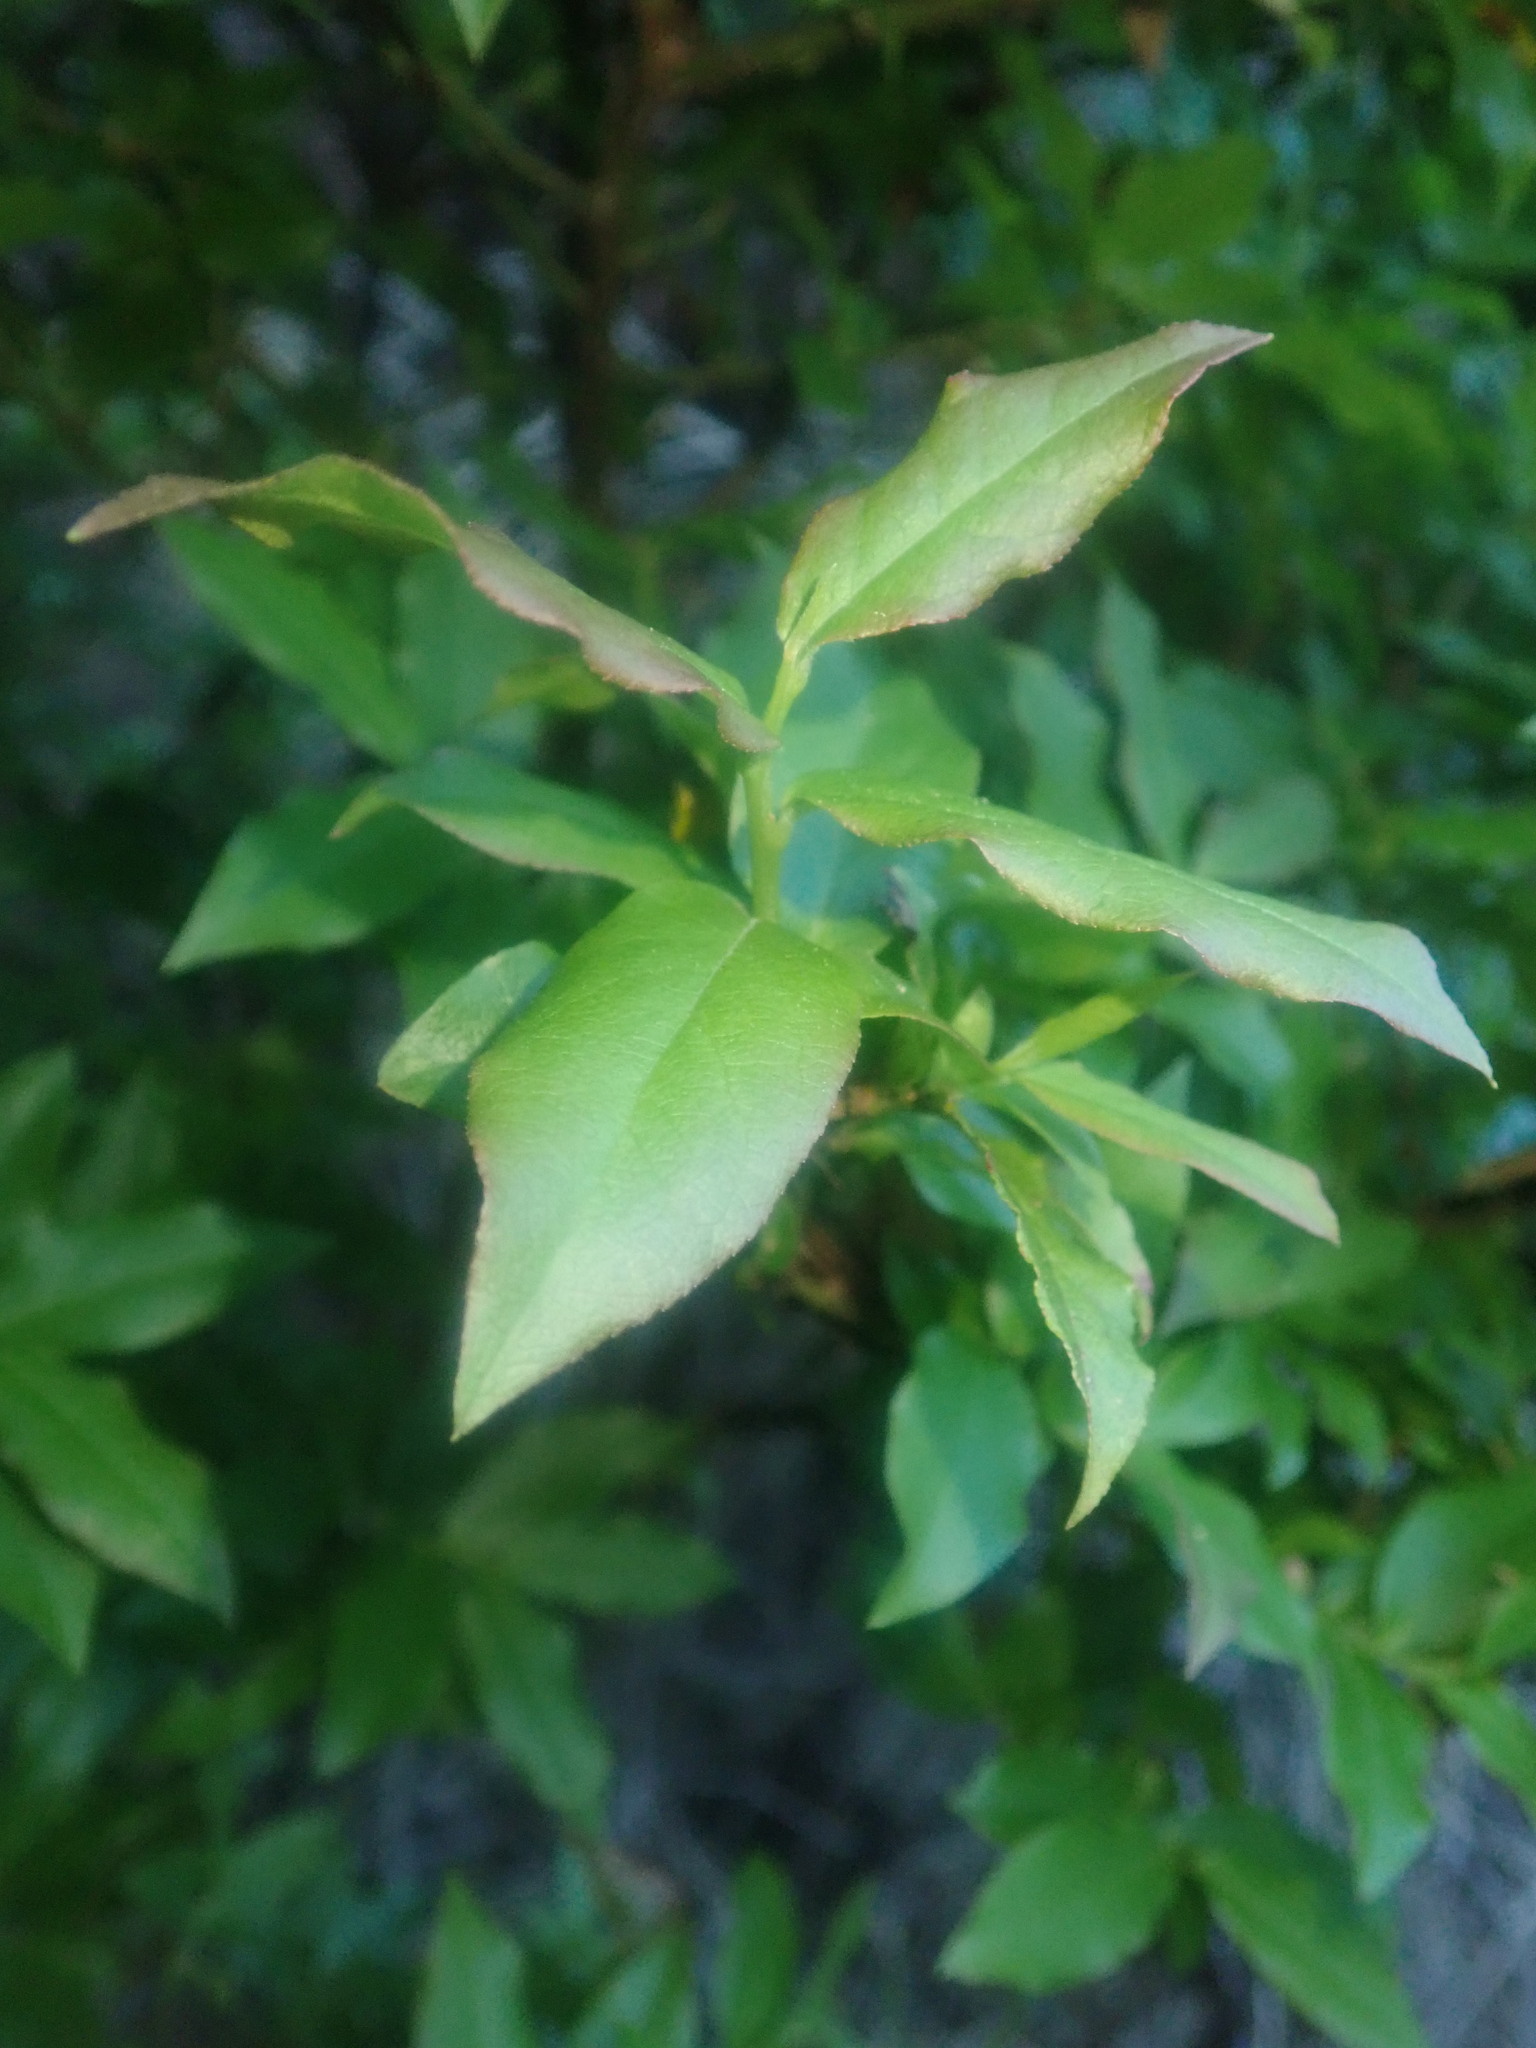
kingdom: Plantae
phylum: Tracheophyta
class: Magnoliopsida
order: Ericales
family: Ericaceae
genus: Vaccinium
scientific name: Vaccinium padifolium
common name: Madeiran blueberry
